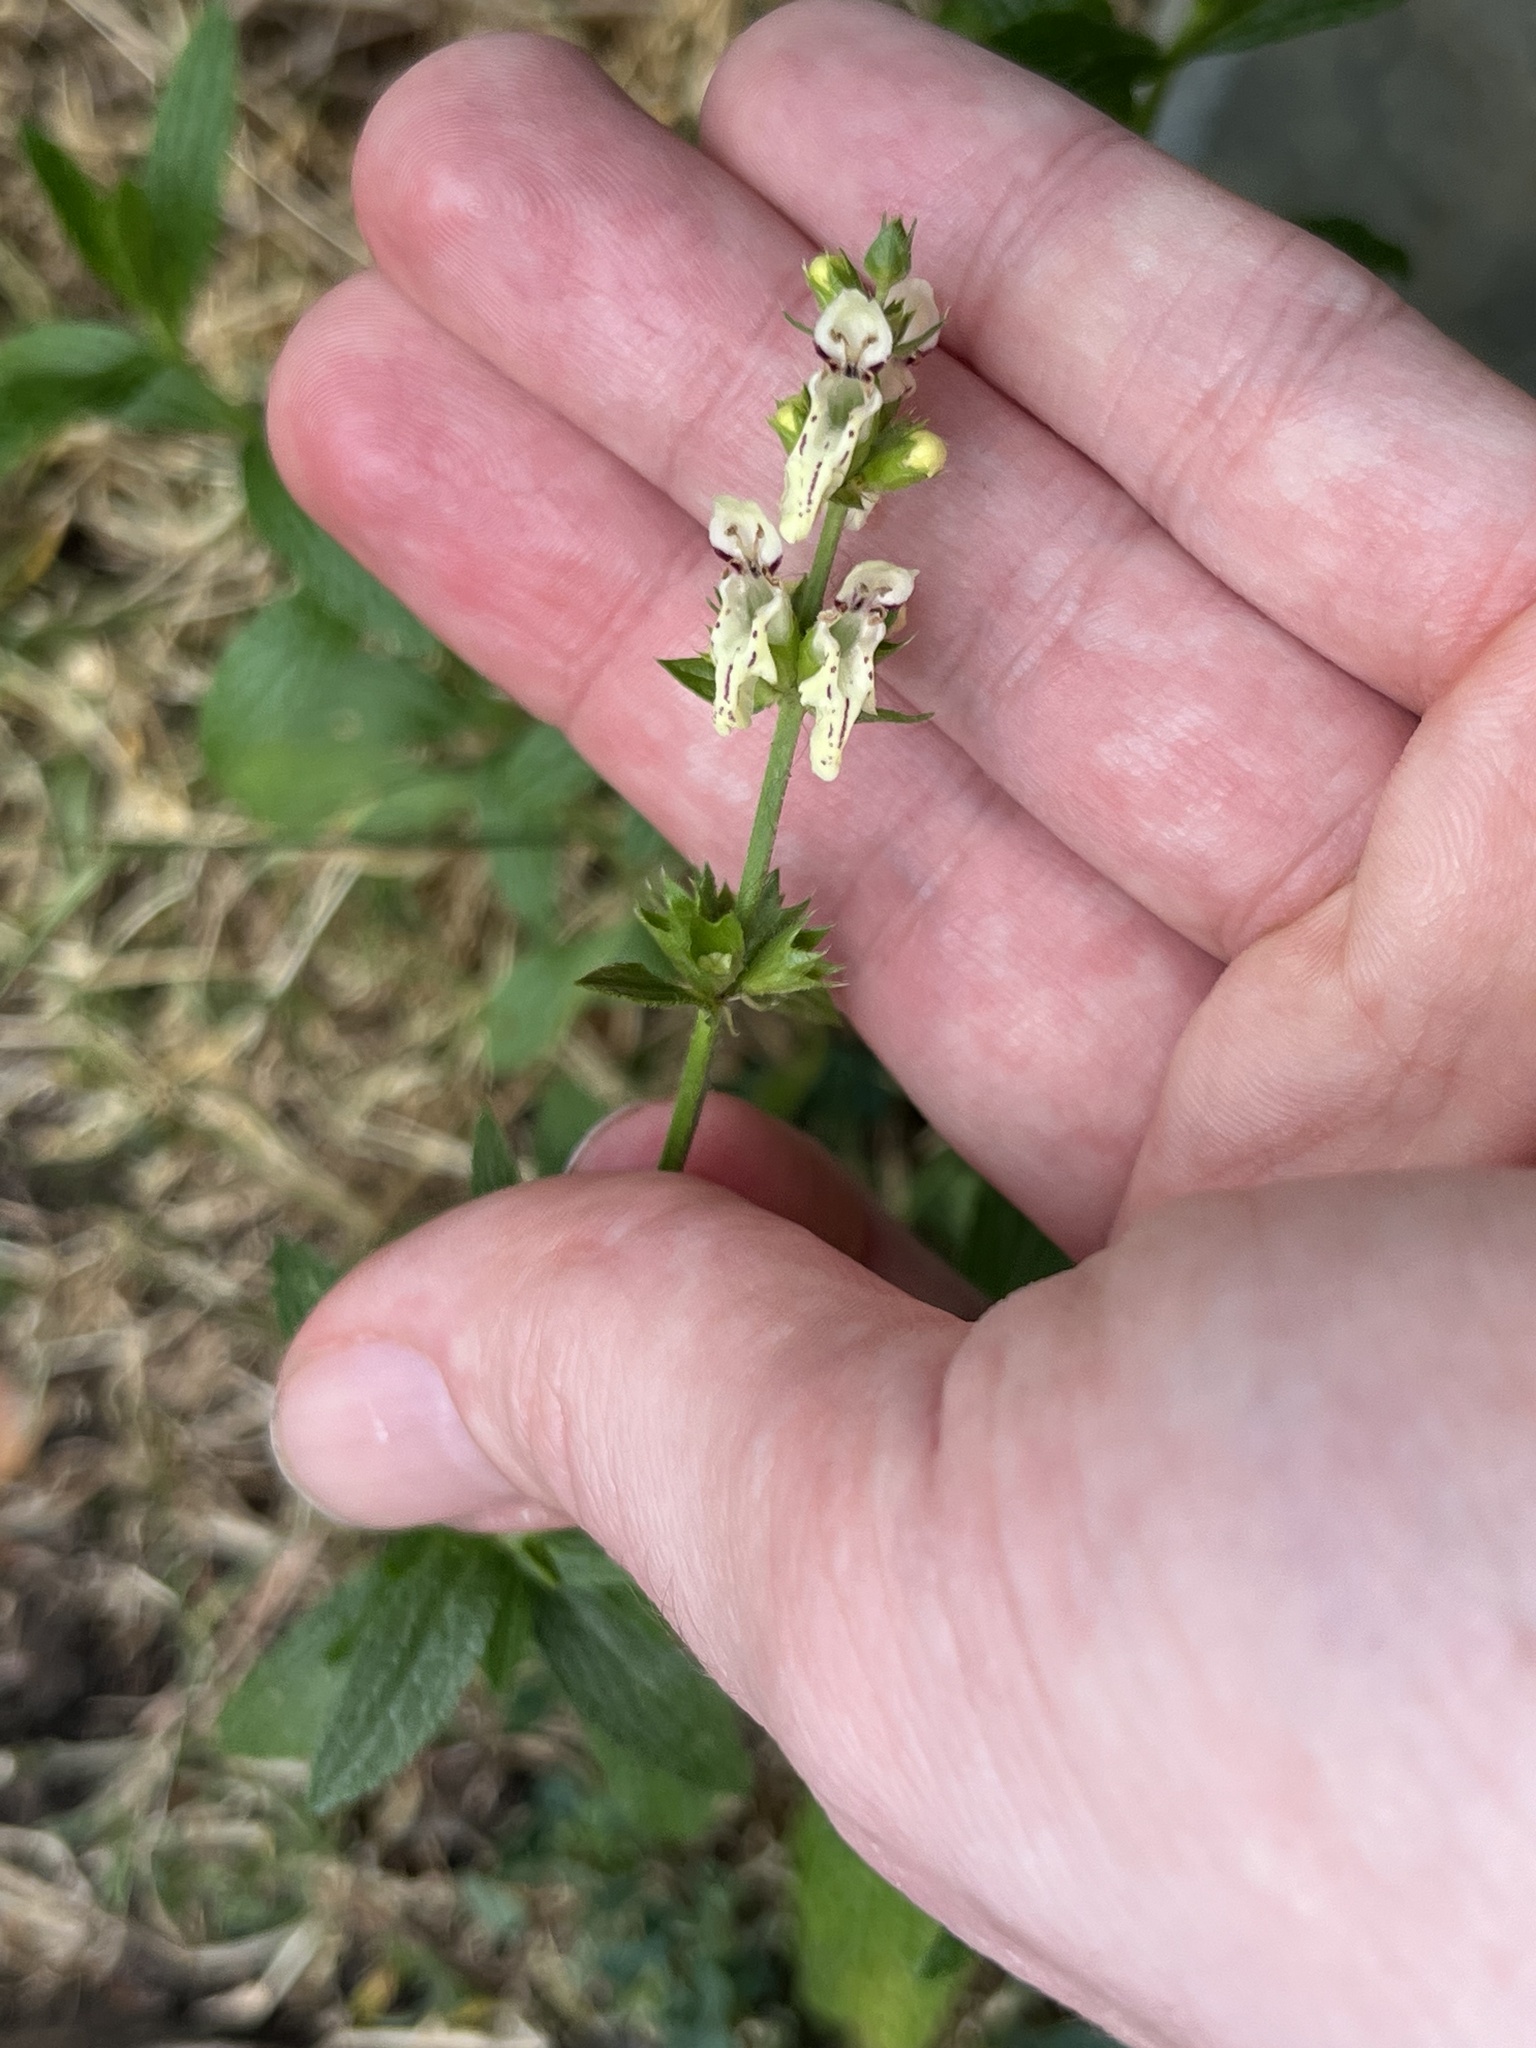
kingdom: Plantae
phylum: Tracheophyta
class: Magnoliopsida
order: Lamiales
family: Lamiaceae
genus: Stachys
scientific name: Stachys recta
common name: Perennial yellow-woundwort
